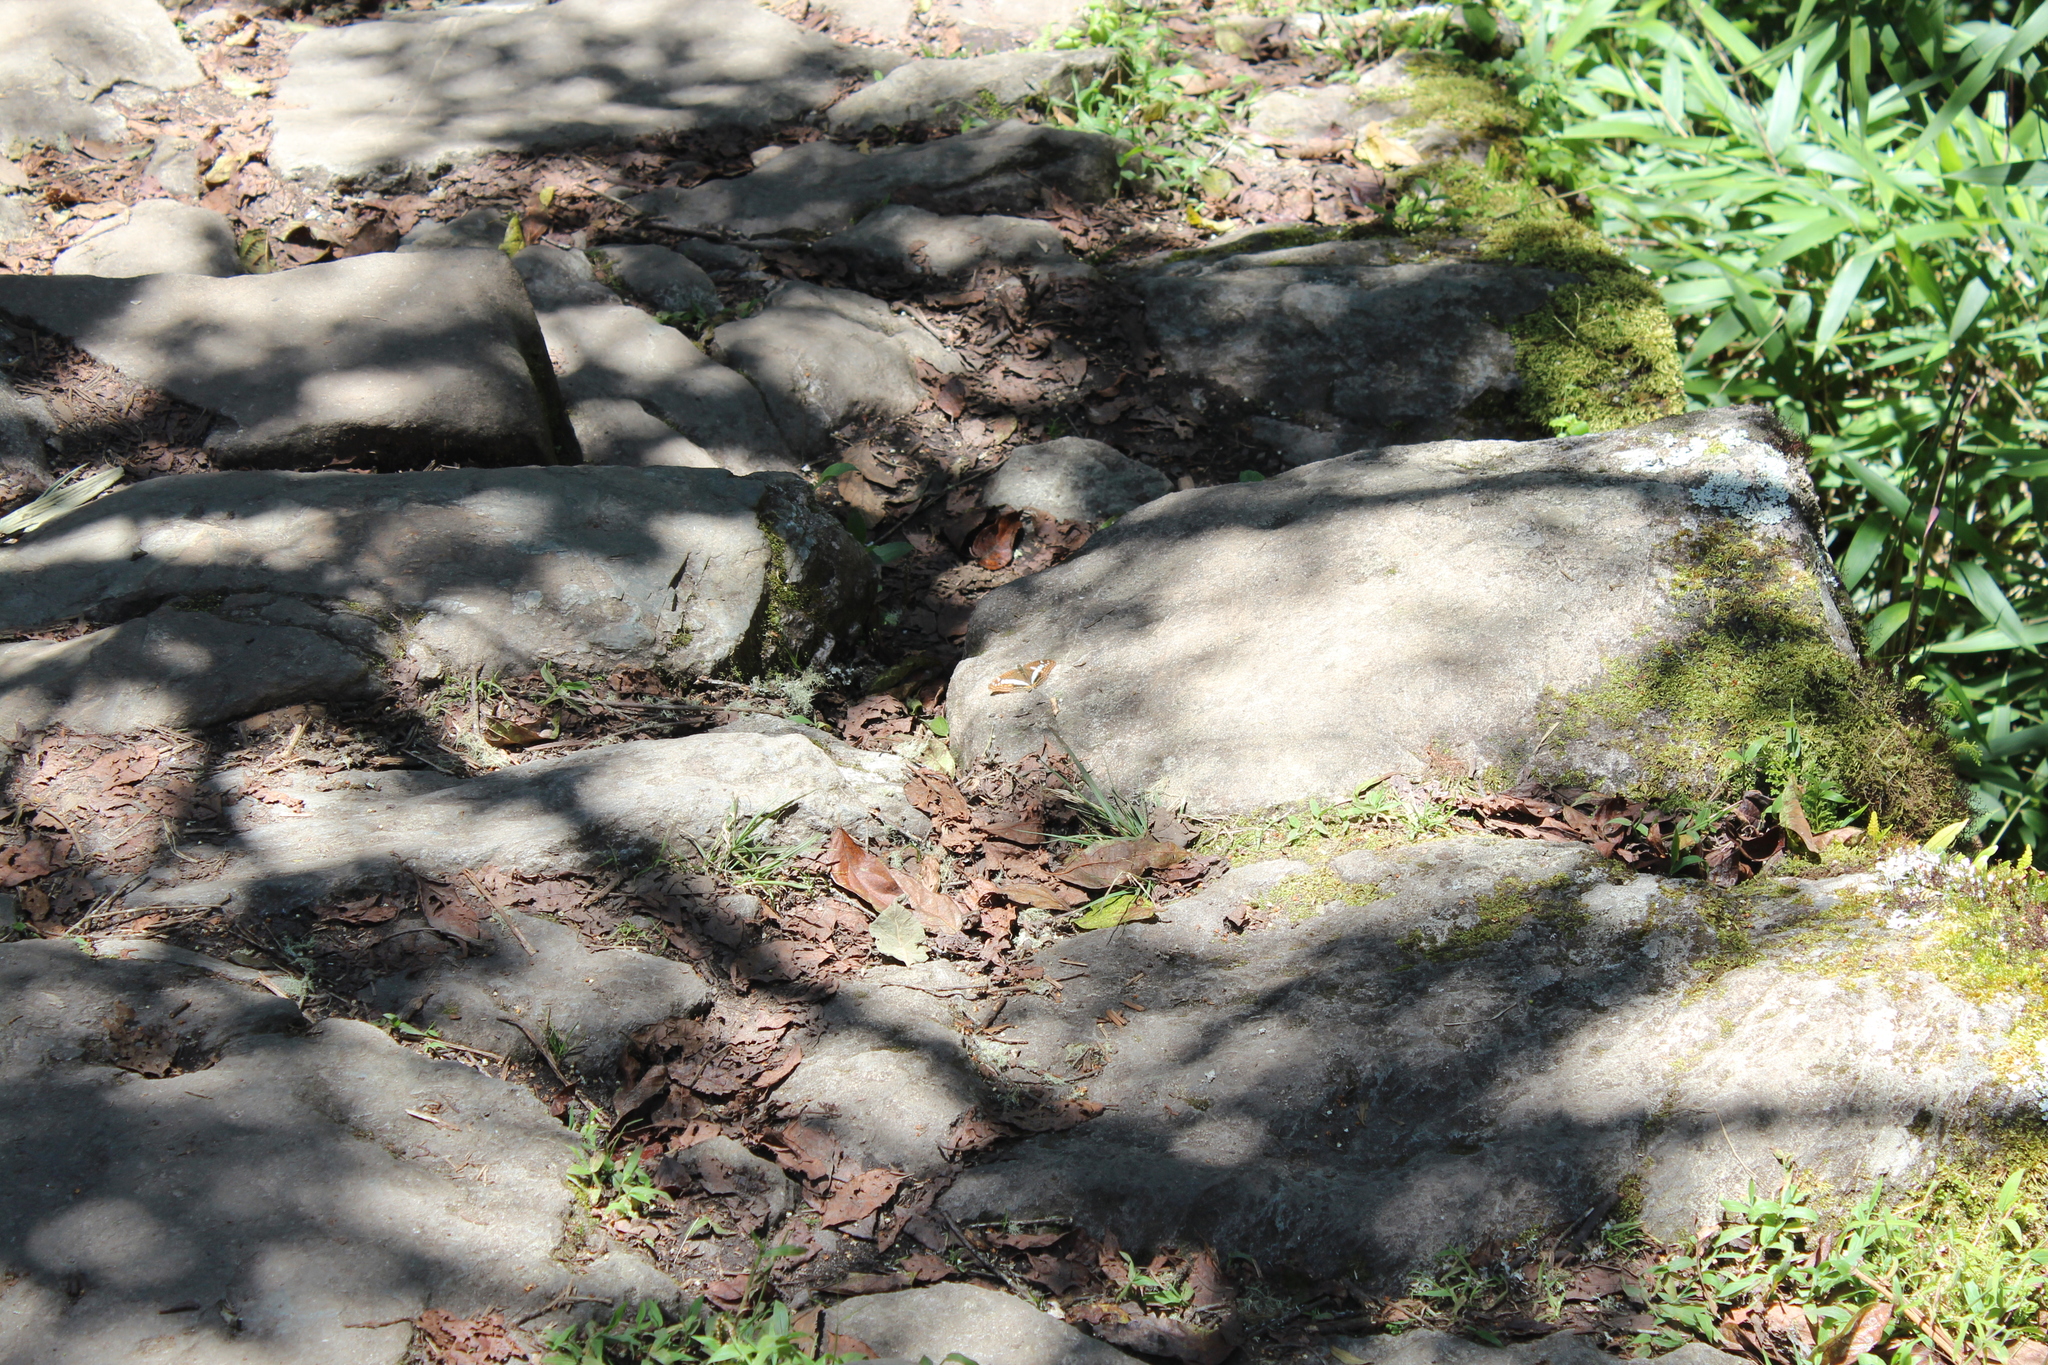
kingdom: Animalia
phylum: Arthropoda
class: Insecta
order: Lepidoptera
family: Nymphalidae
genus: Limenitis
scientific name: Limenitis alala
